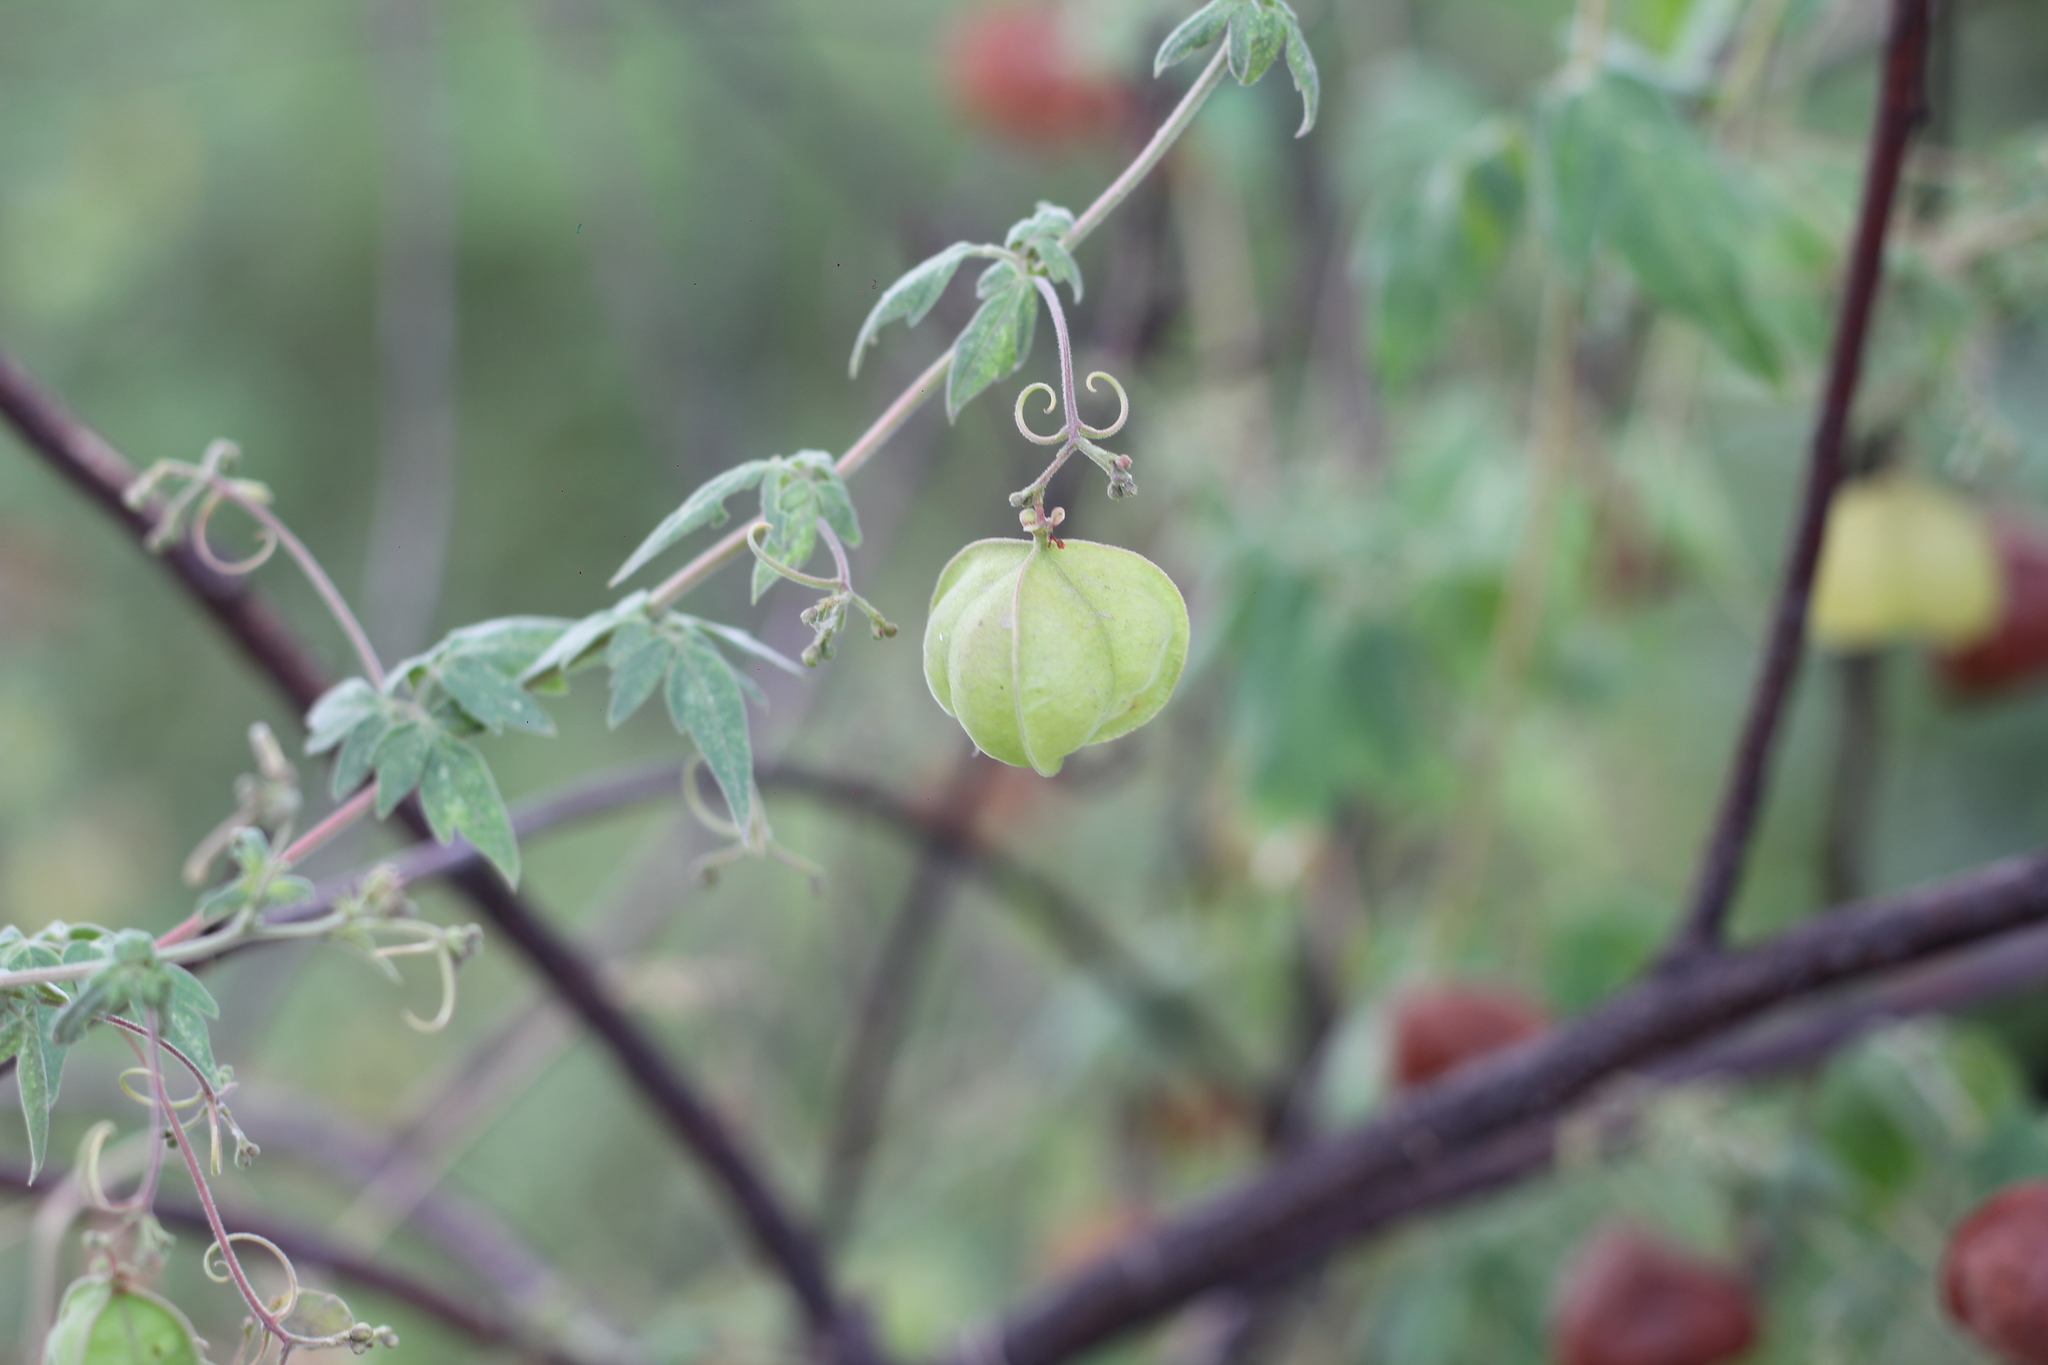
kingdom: Plantae
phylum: Tracheophyta
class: Magnoliopsida
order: Sapindales
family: Sapindaceae
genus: Cardiospermum
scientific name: Cardiospermum halicacabum
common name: Balloon vine
